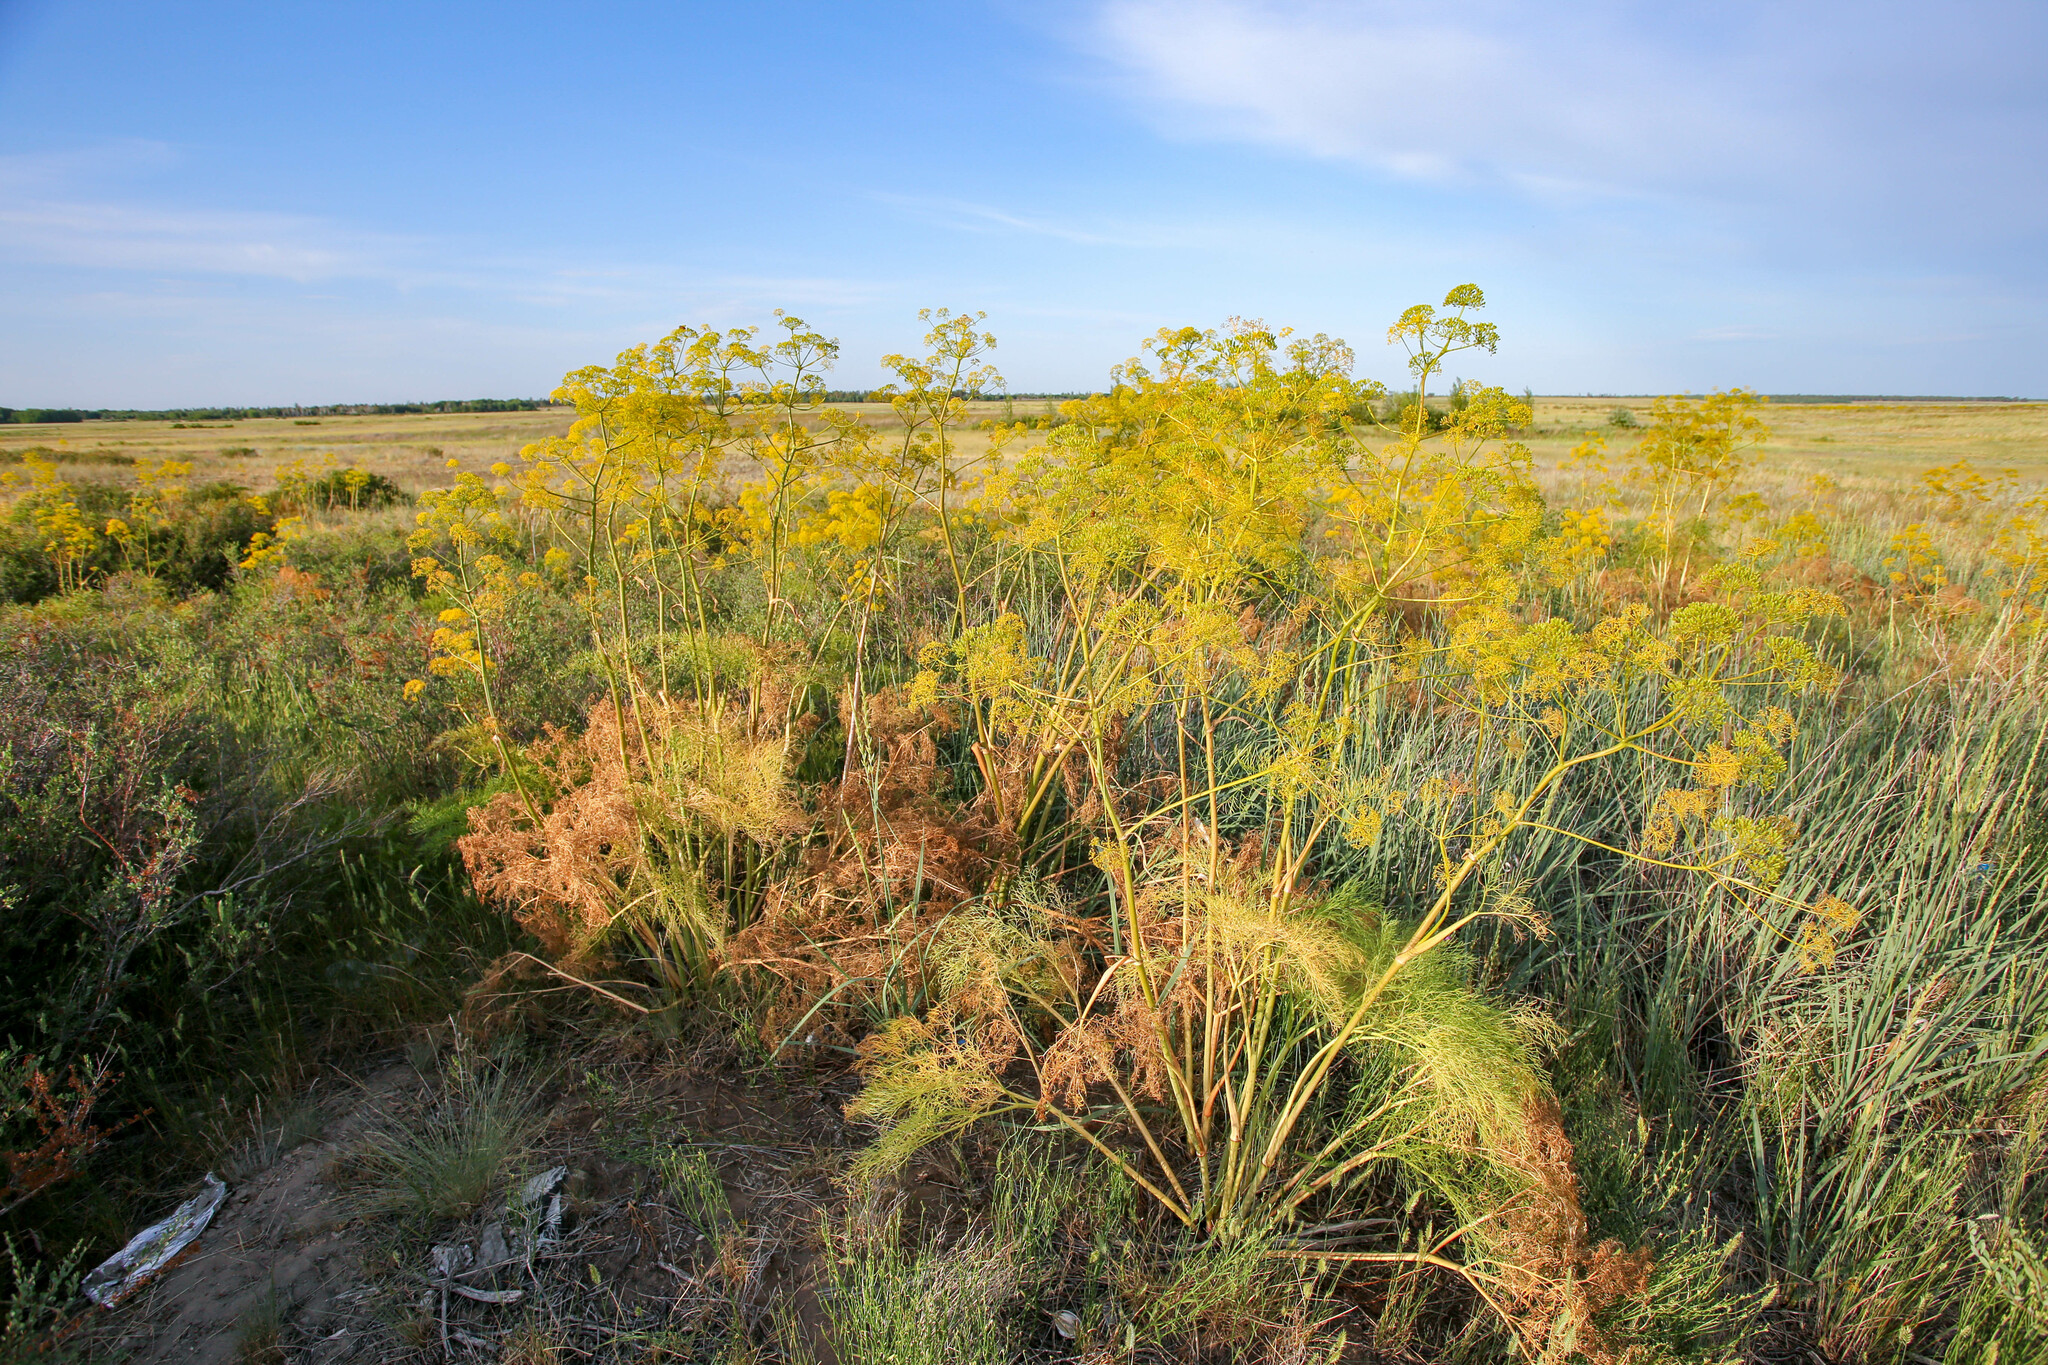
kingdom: Plantae
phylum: Tracheophyta
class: Magnoliopsida
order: Apiales
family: Apiaceae
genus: Ferula
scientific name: Ferula songarica
